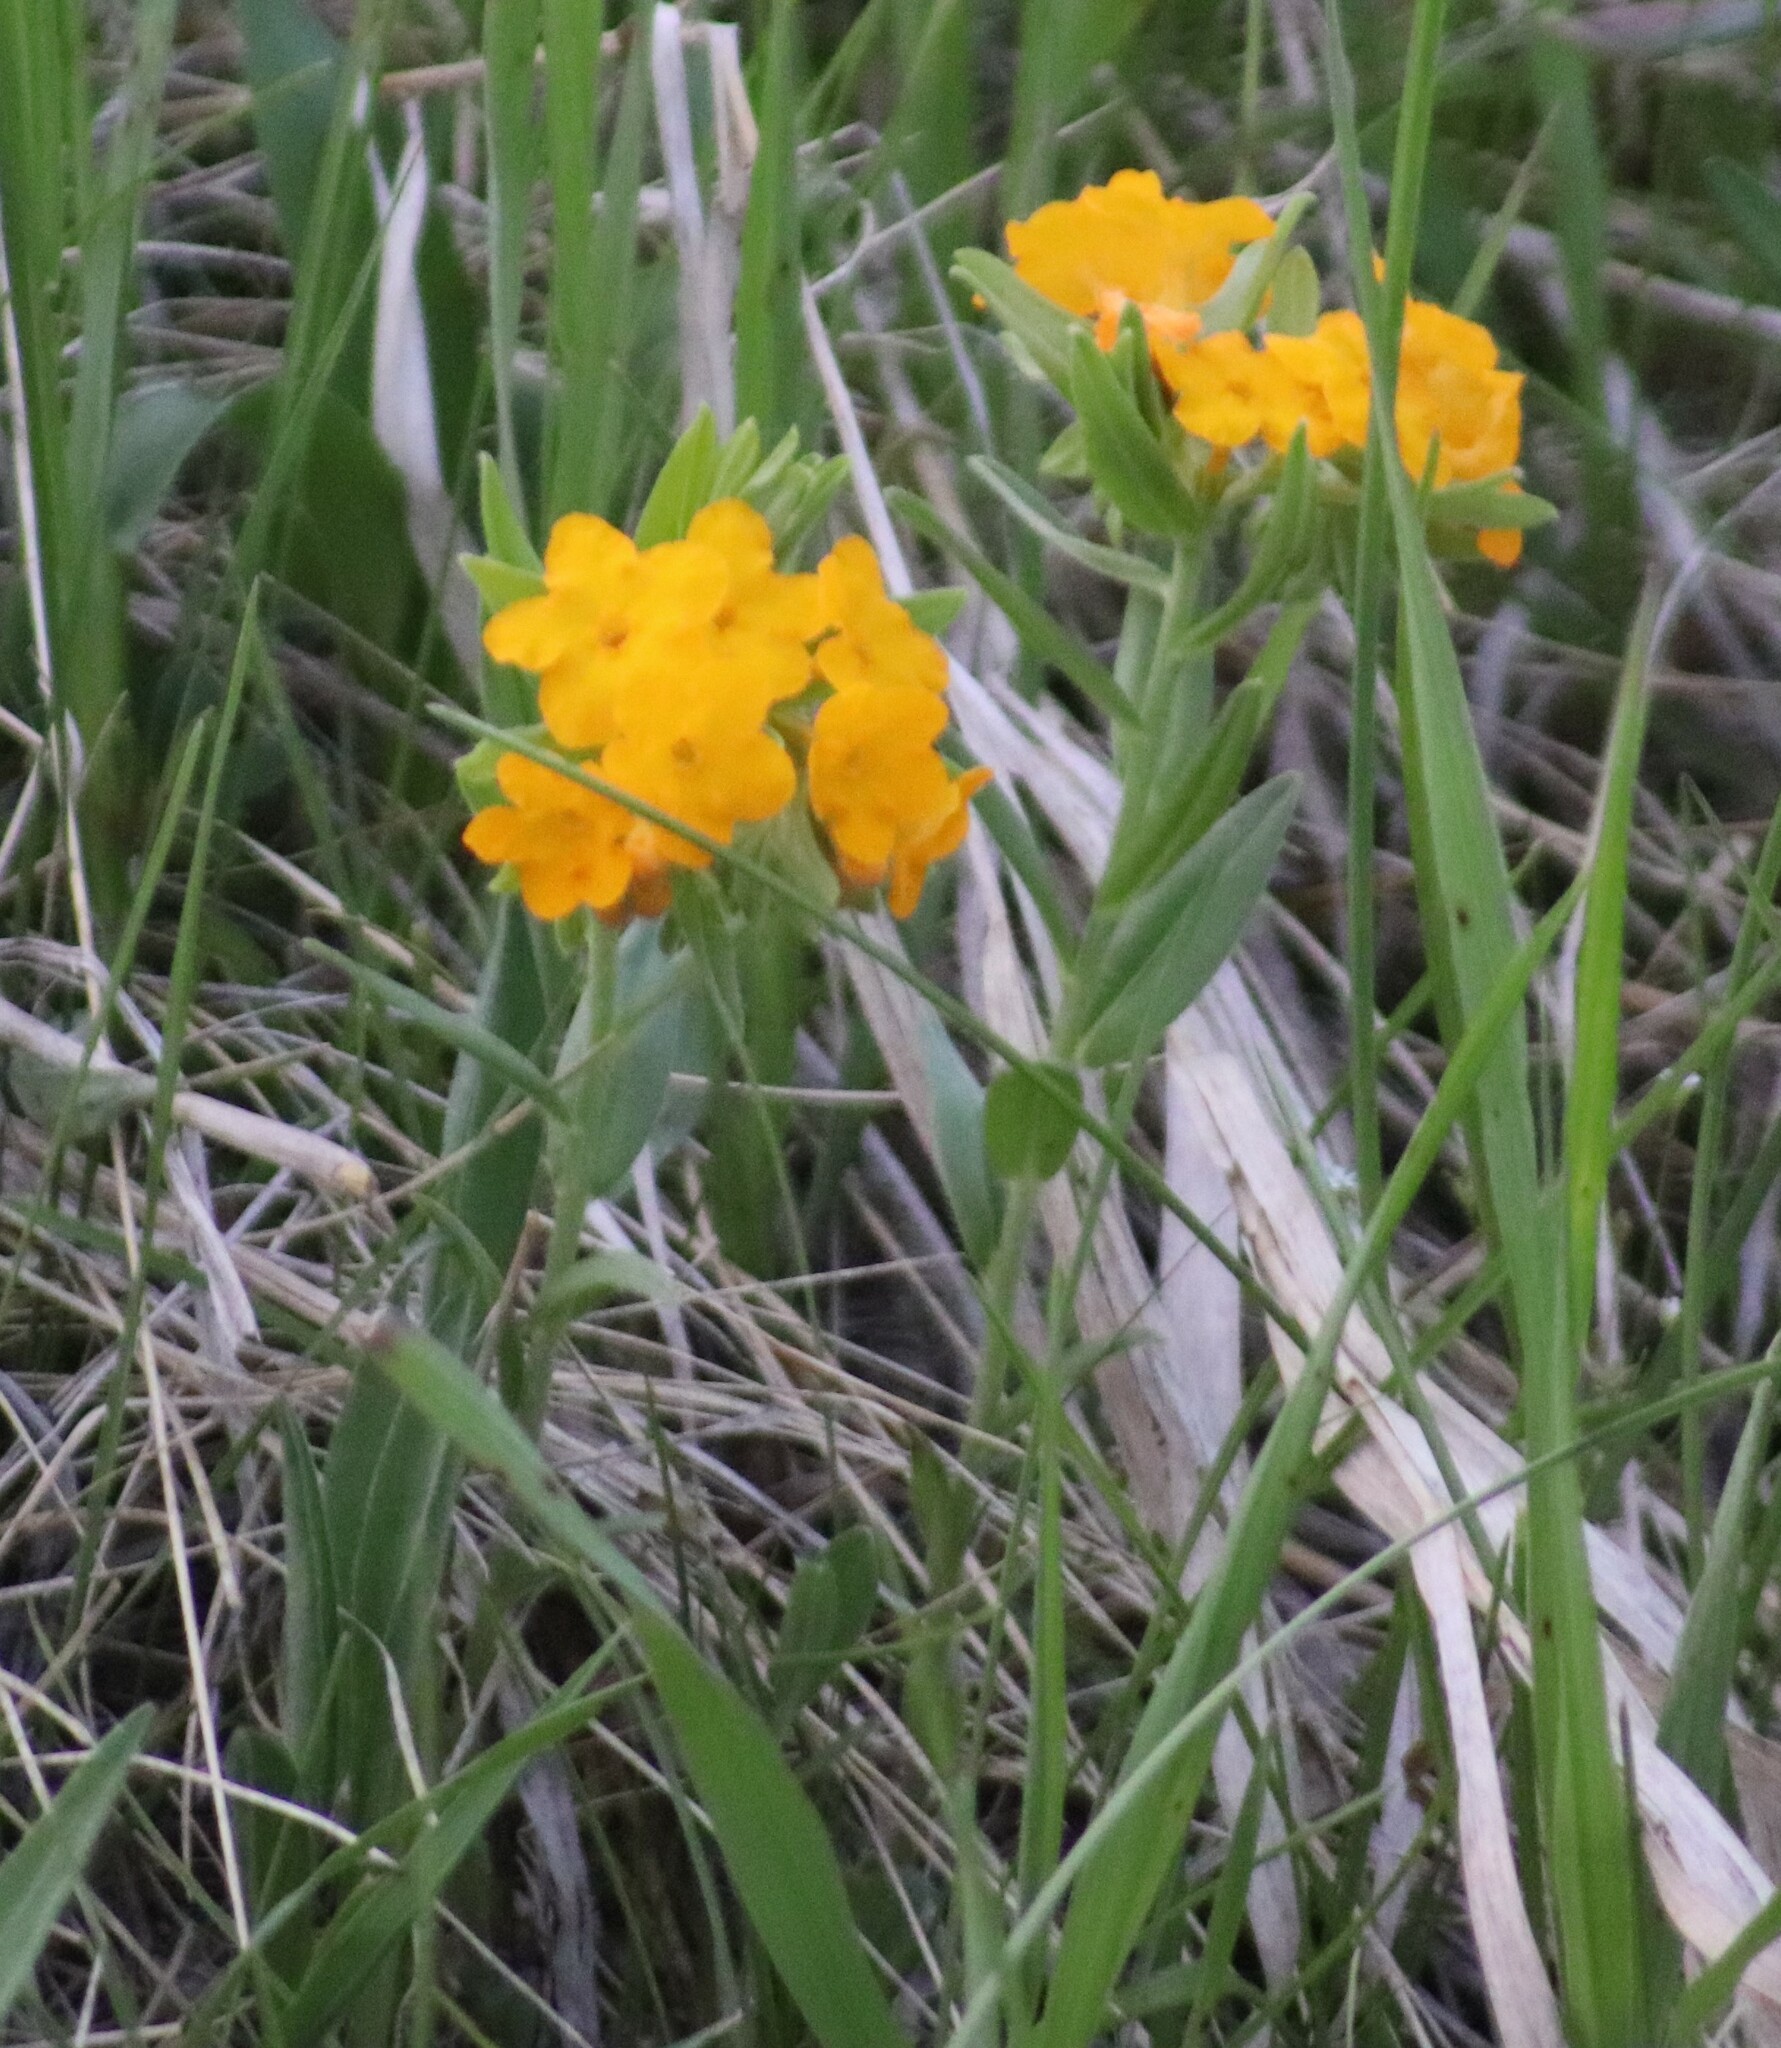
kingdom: Plantae
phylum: Tracheophyta
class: Magnoliopsida
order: Boraginales
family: Boraginaceae
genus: Lithospermum
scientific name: Lithospermum canescens
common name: Hoary puccoon
